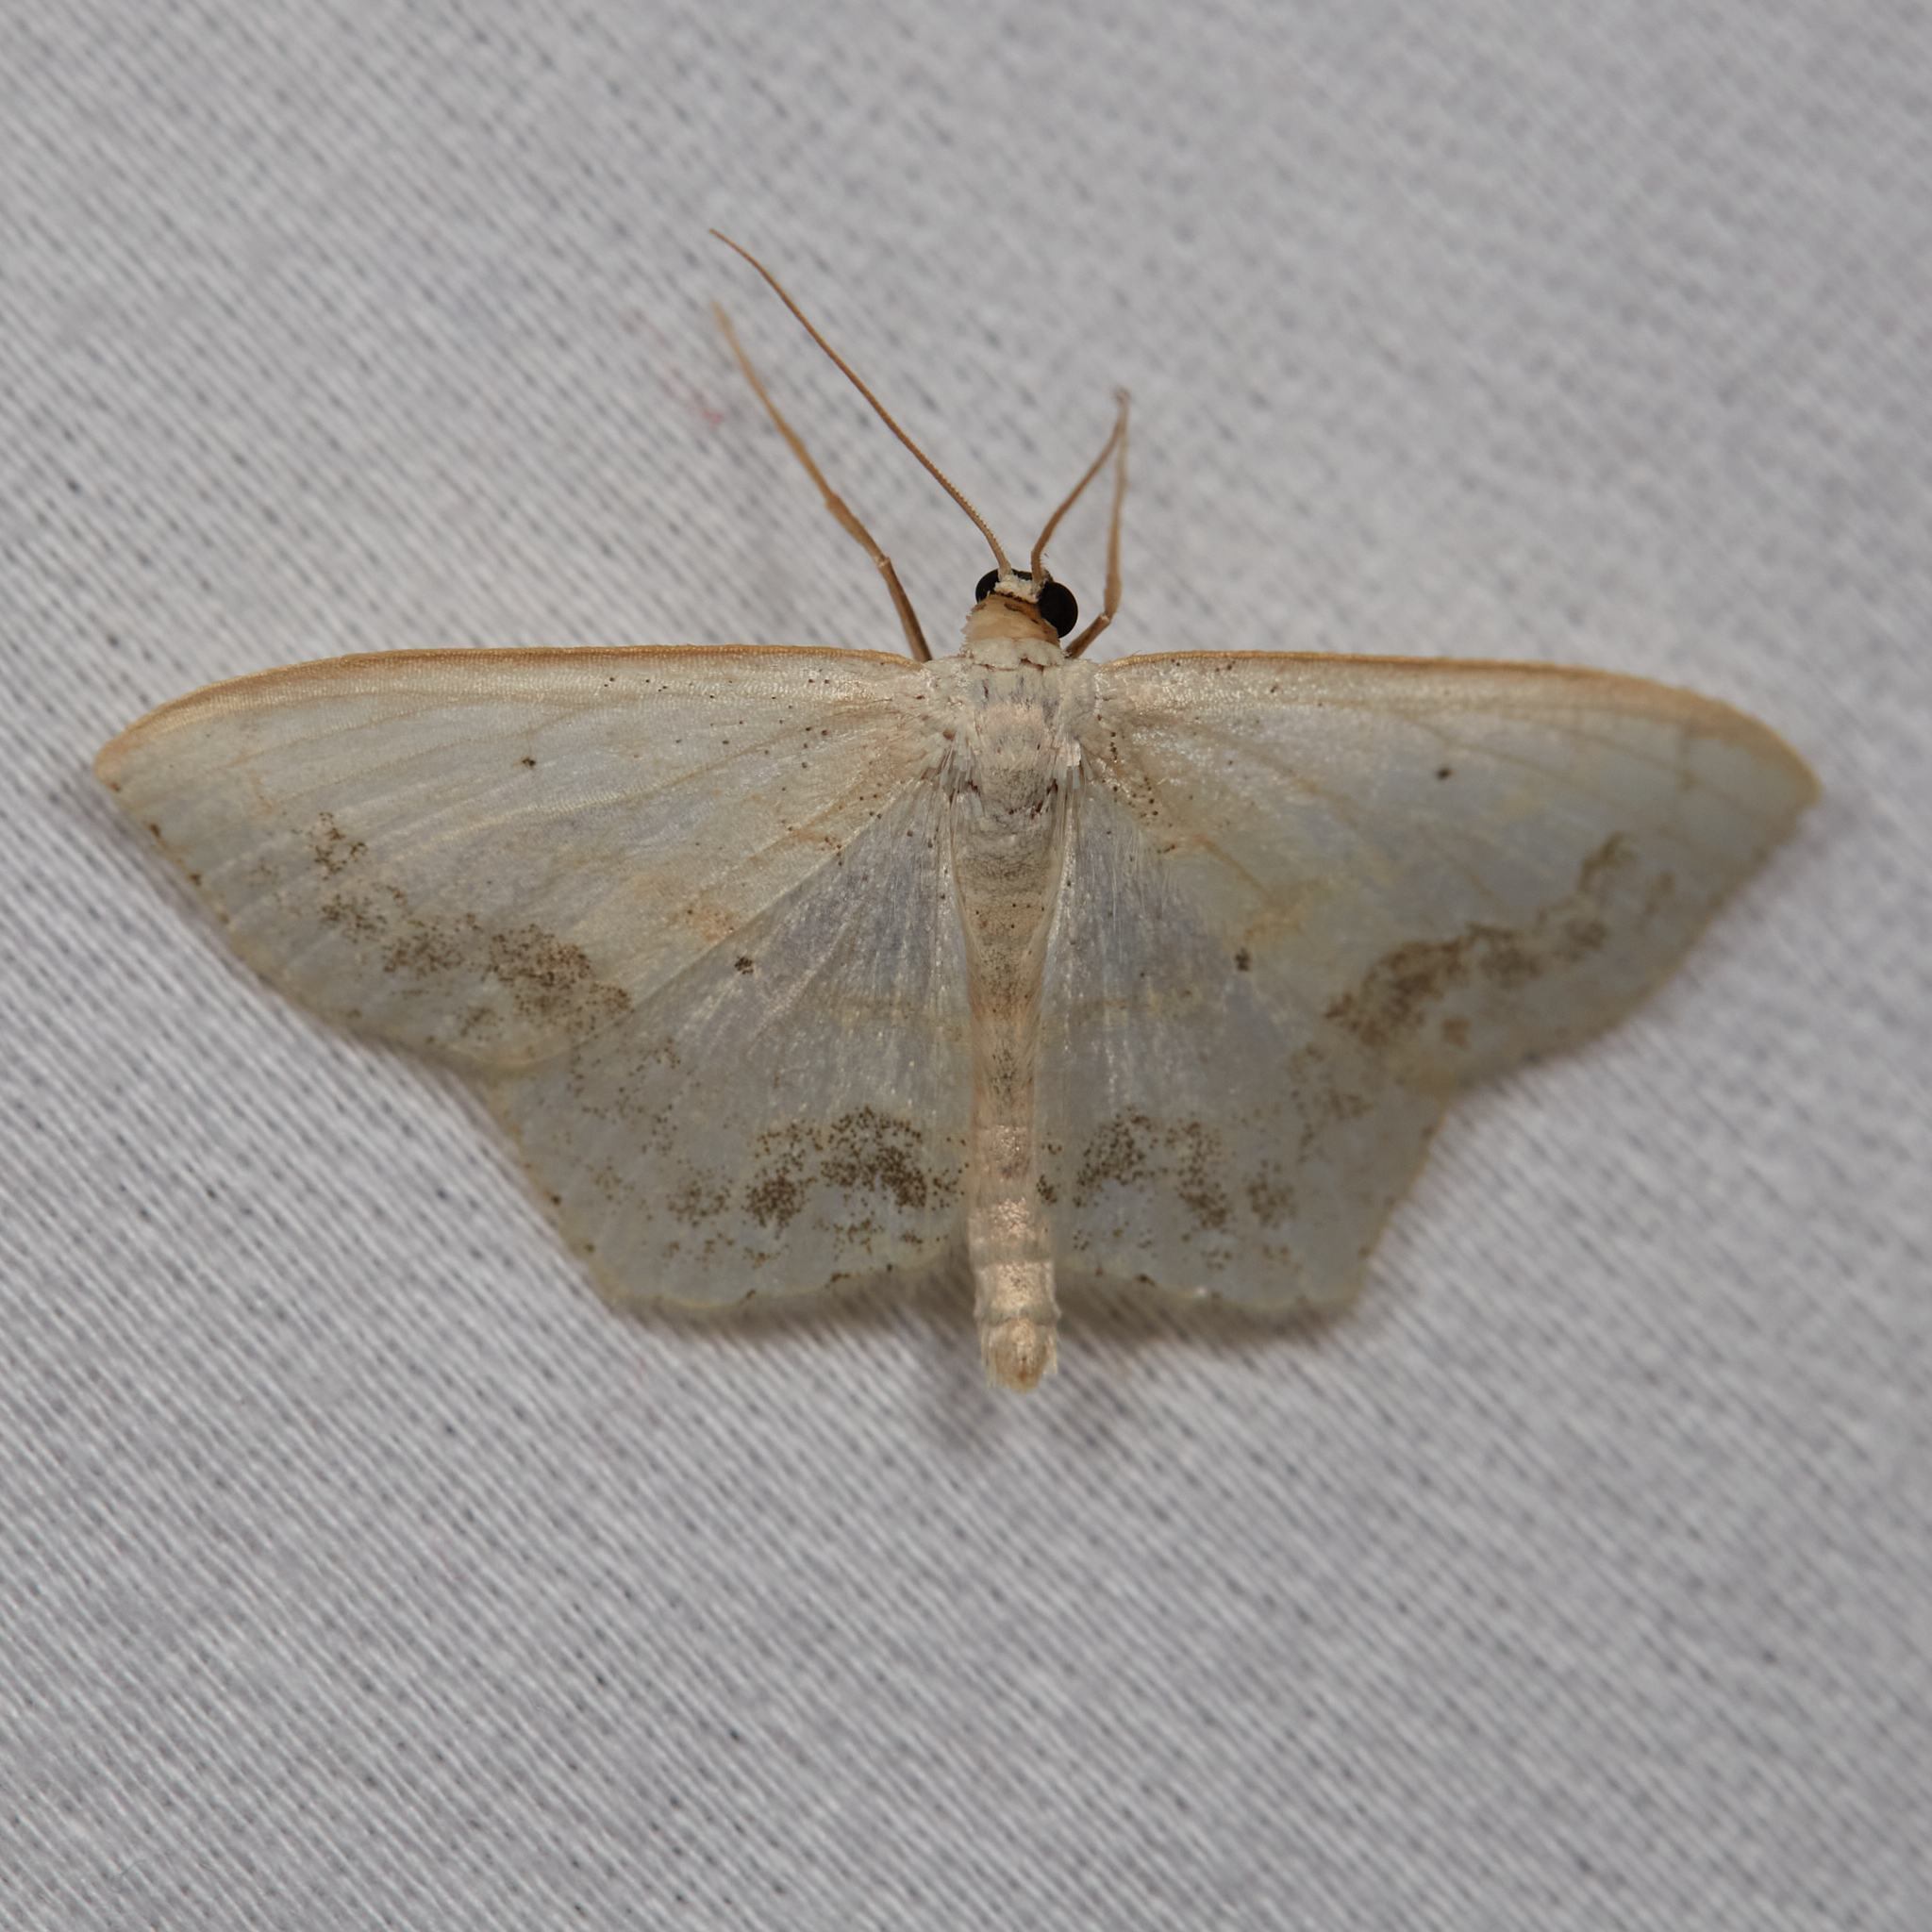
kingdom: Animalia
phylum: Arthropoda
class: Insecta
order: Lepidoptera
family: Geometridae
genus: Scopula
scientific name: Scopula limboundata
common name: Large lace border
